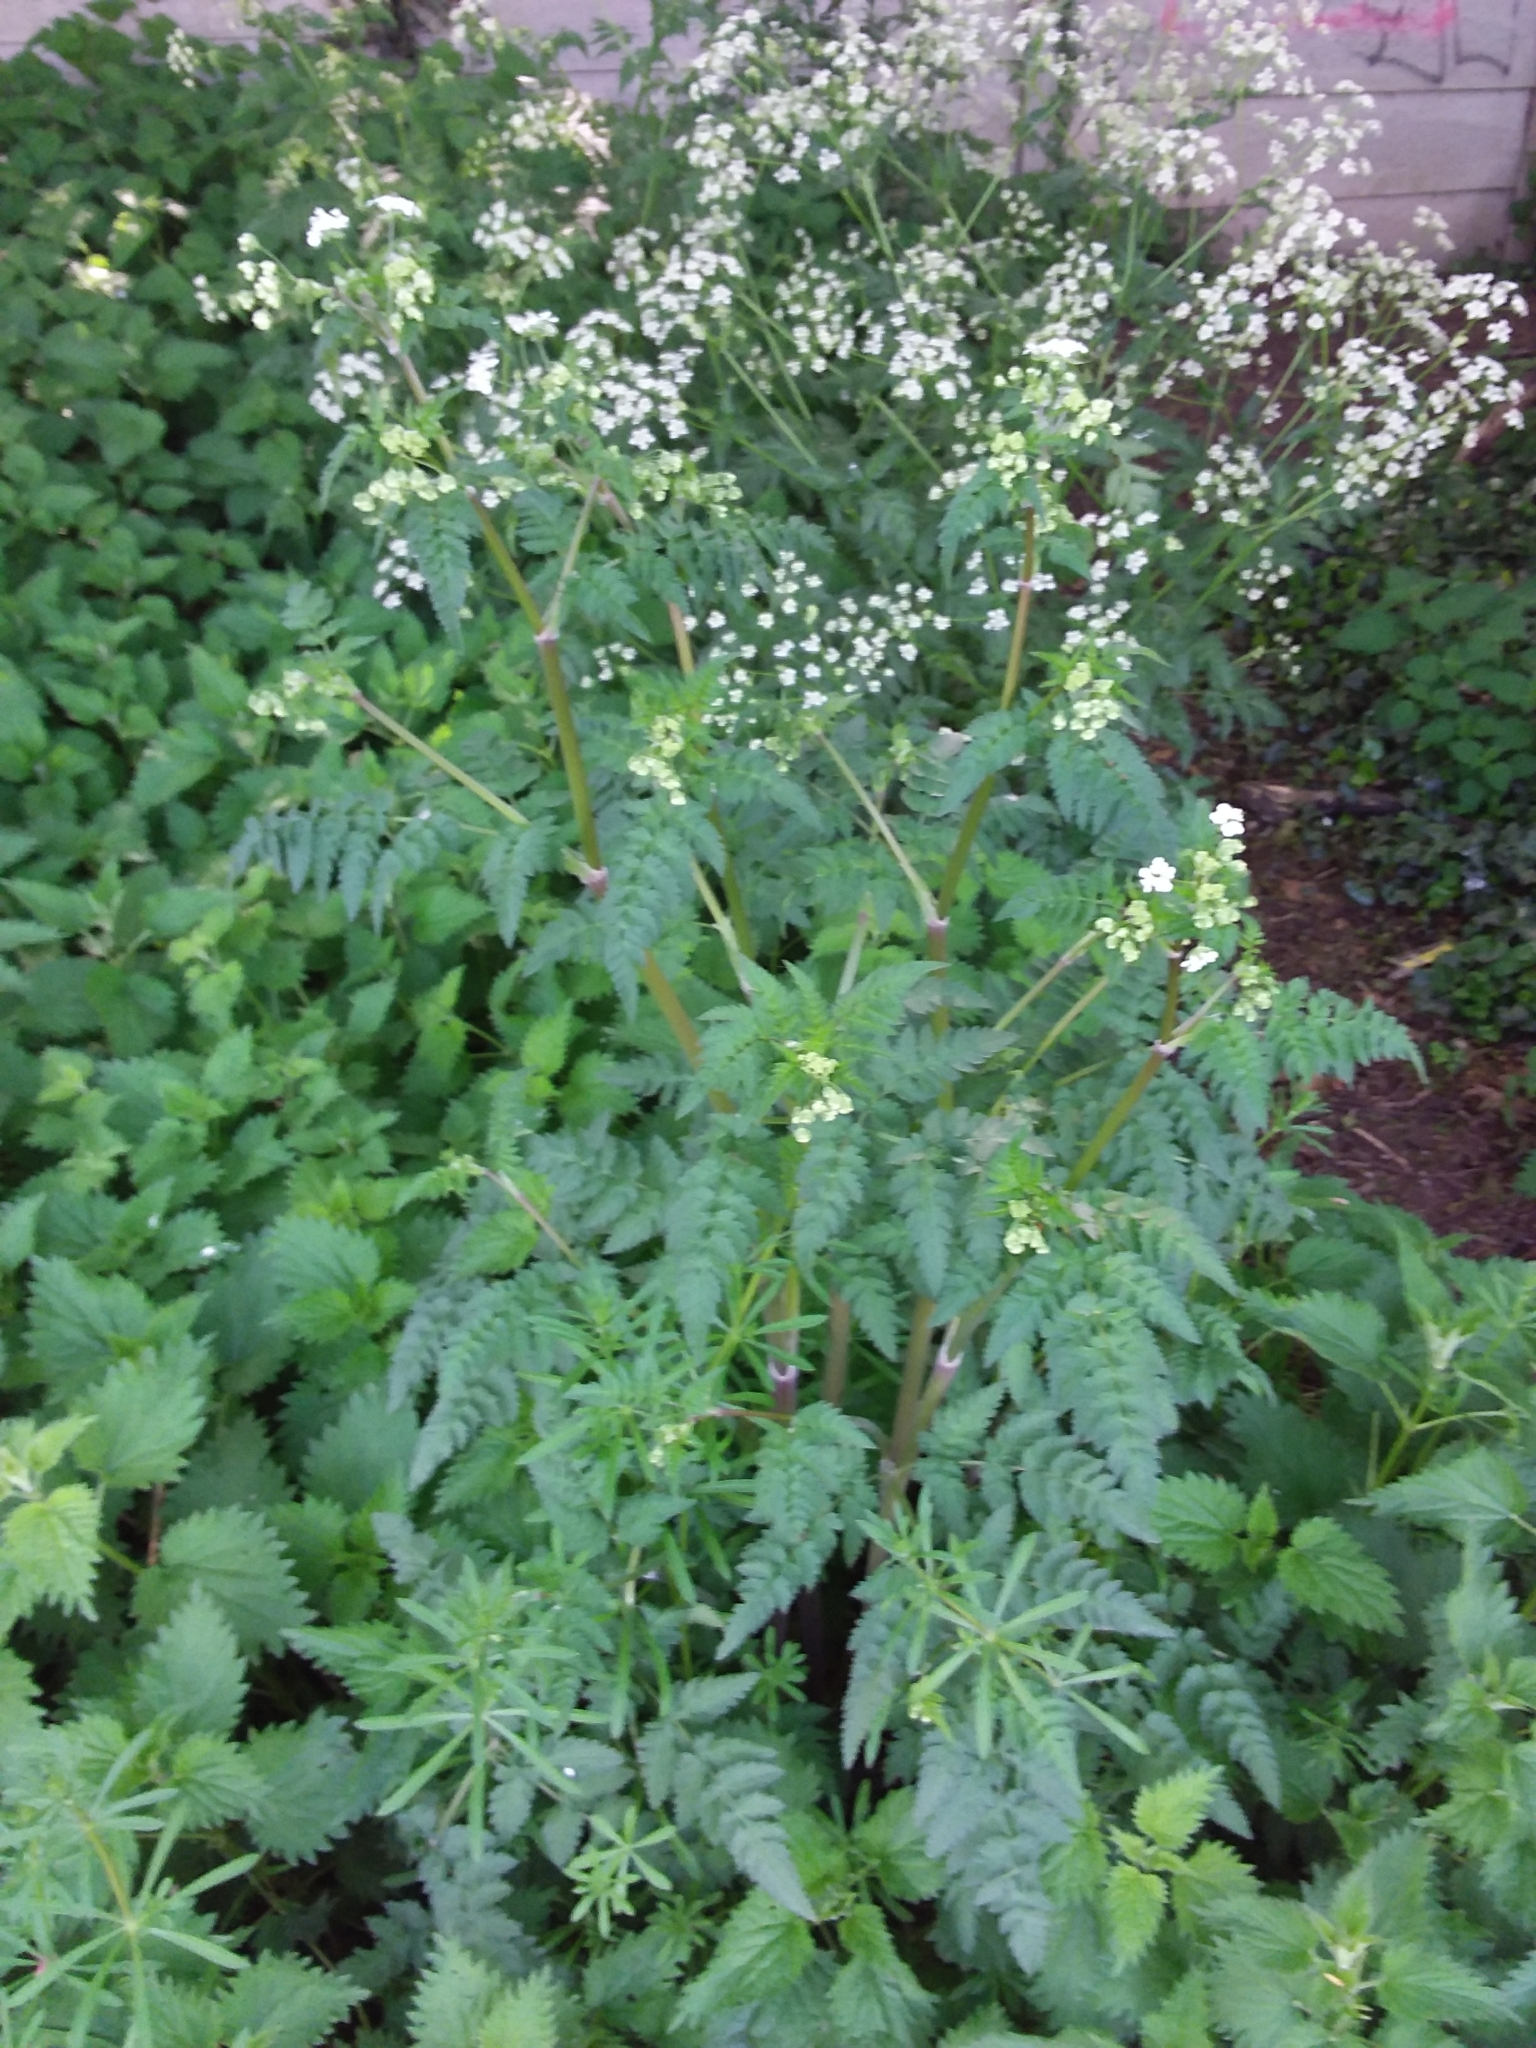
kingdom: Plantae
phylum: Tracheophyta
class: Magnoliopsida
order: Apiales
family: Apiaceae
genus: Anthriscus
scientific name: Anthriscus sylvestris
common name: Cow parsley
